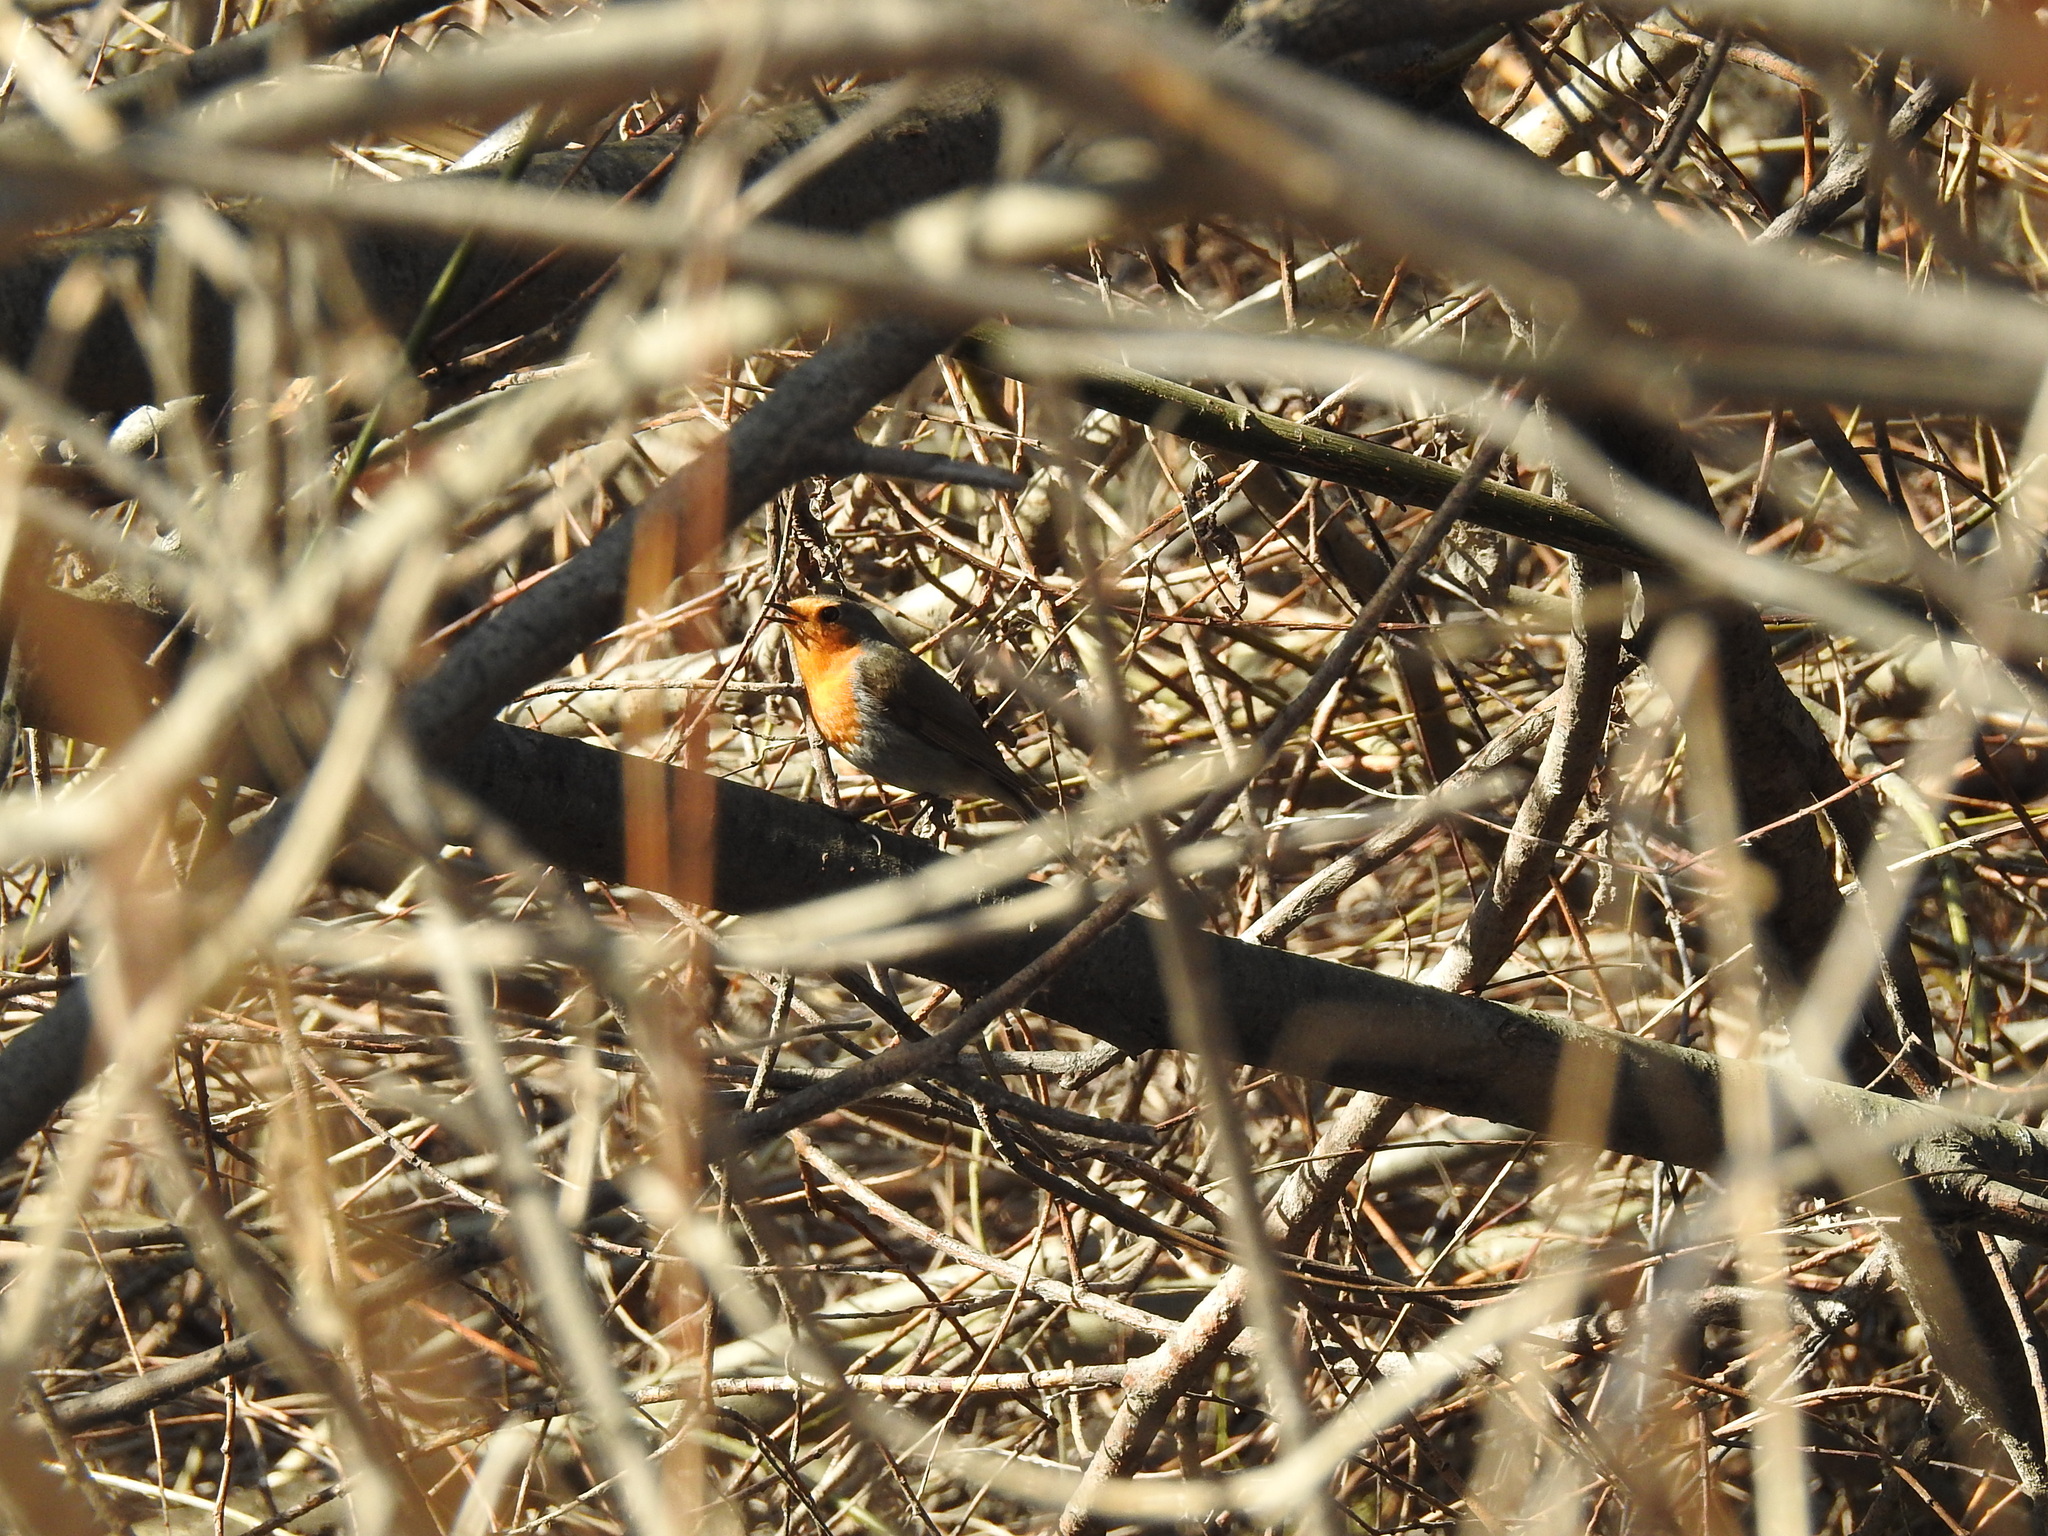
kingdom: Animalia
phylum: Chordata
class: Aves
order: Passeriformes
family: Muscicapidae
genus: Erithacus
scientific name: Erithacus rubecula
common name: European robin
